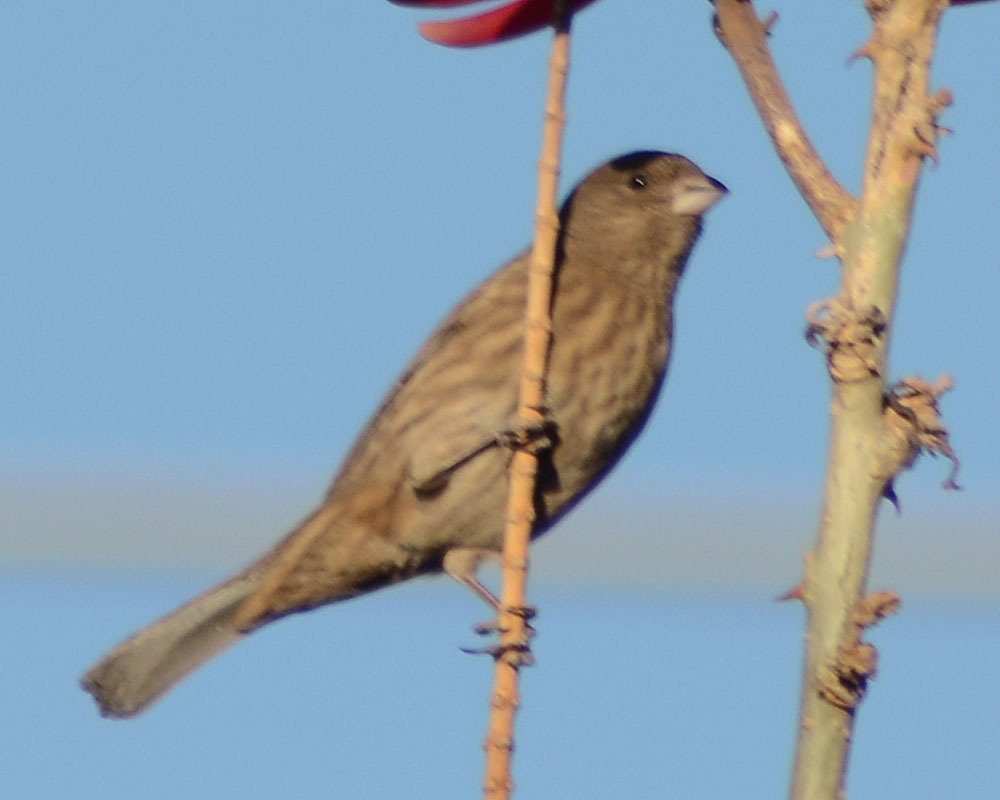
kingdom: Animalia
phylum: Chordata
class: Aves
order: Passeriformes
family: Fringillidae
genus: Haemorhous
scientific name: Haemorhous mexicanus
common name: House finch
